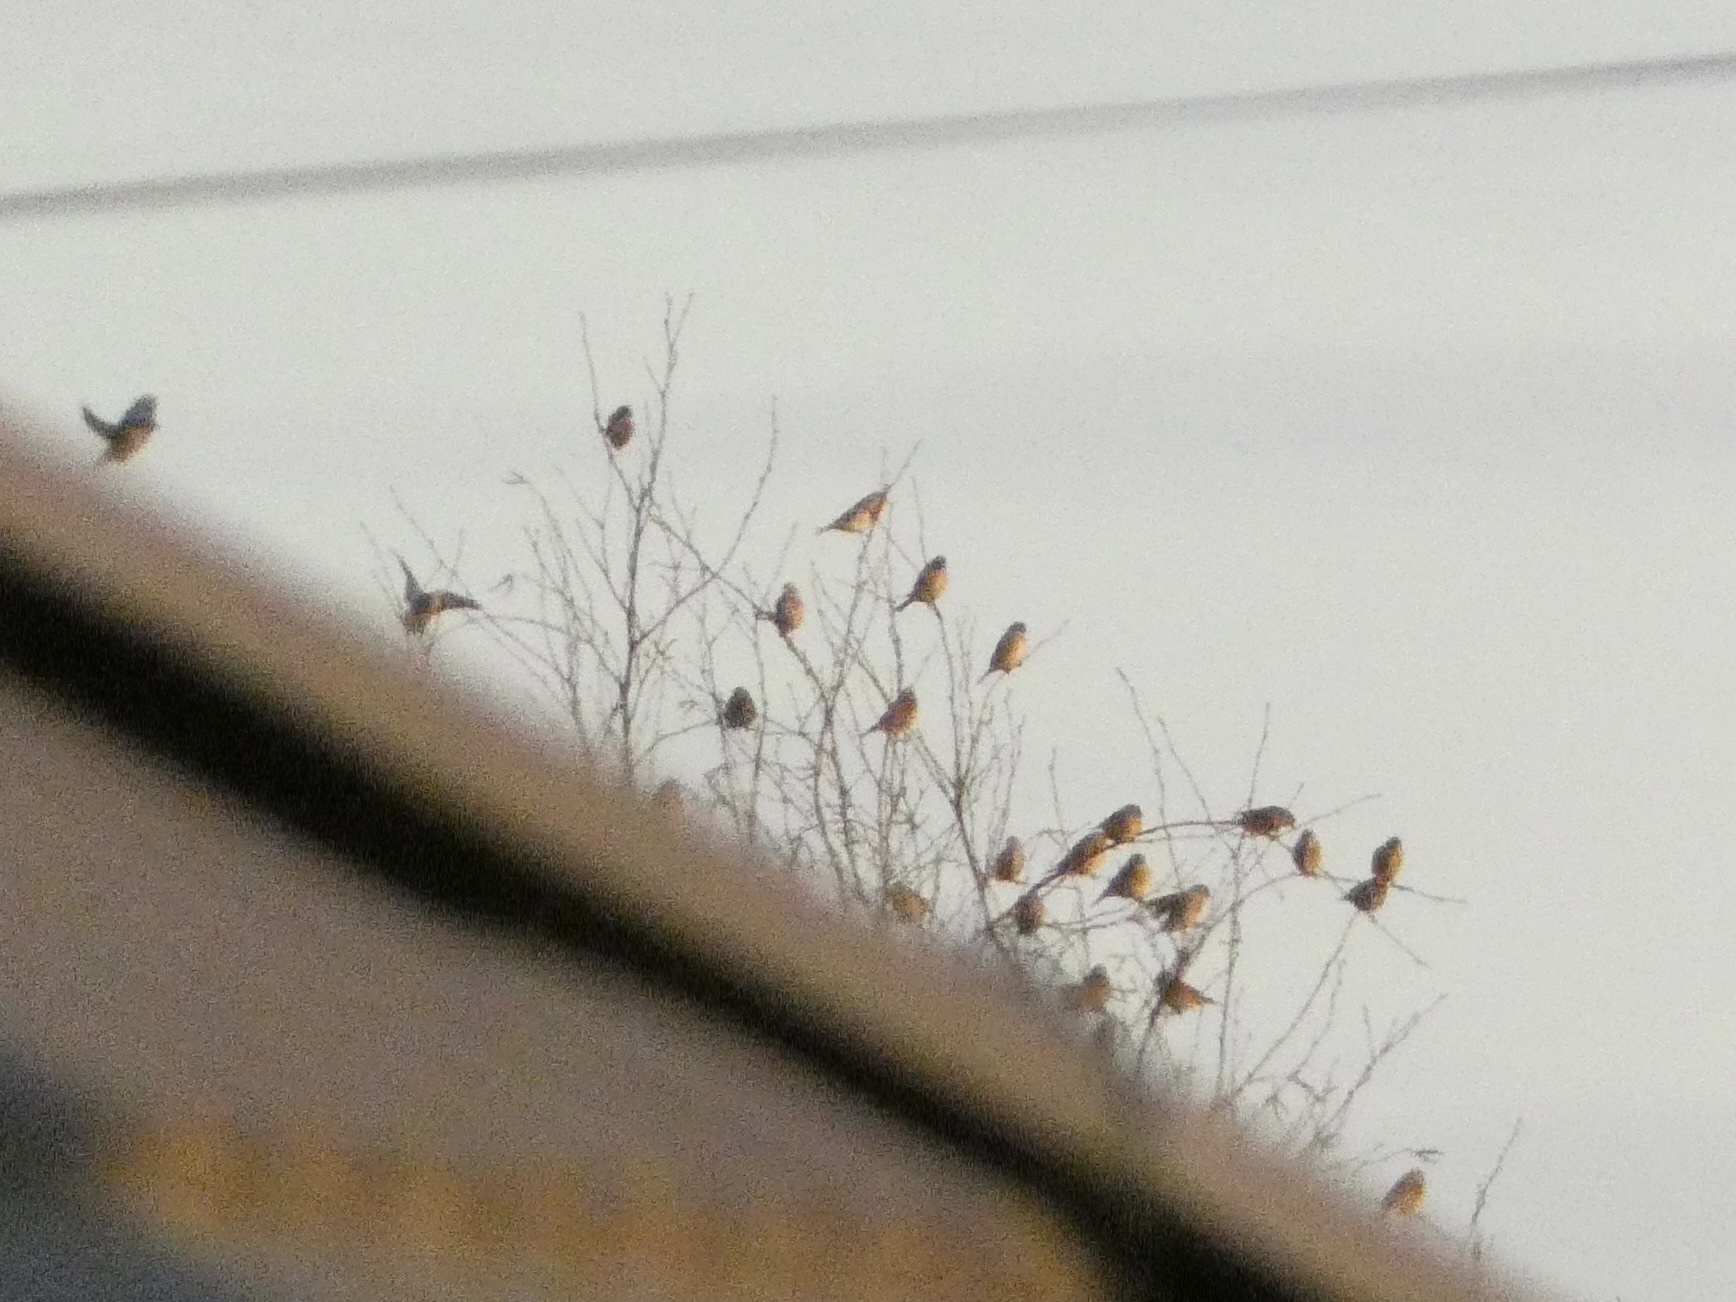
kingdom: Animalia
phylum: Chordata
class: Aves
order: Passeriformes
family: Fringillidae
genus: Linaria
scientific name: Linaria cannabina
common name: Common linnet
